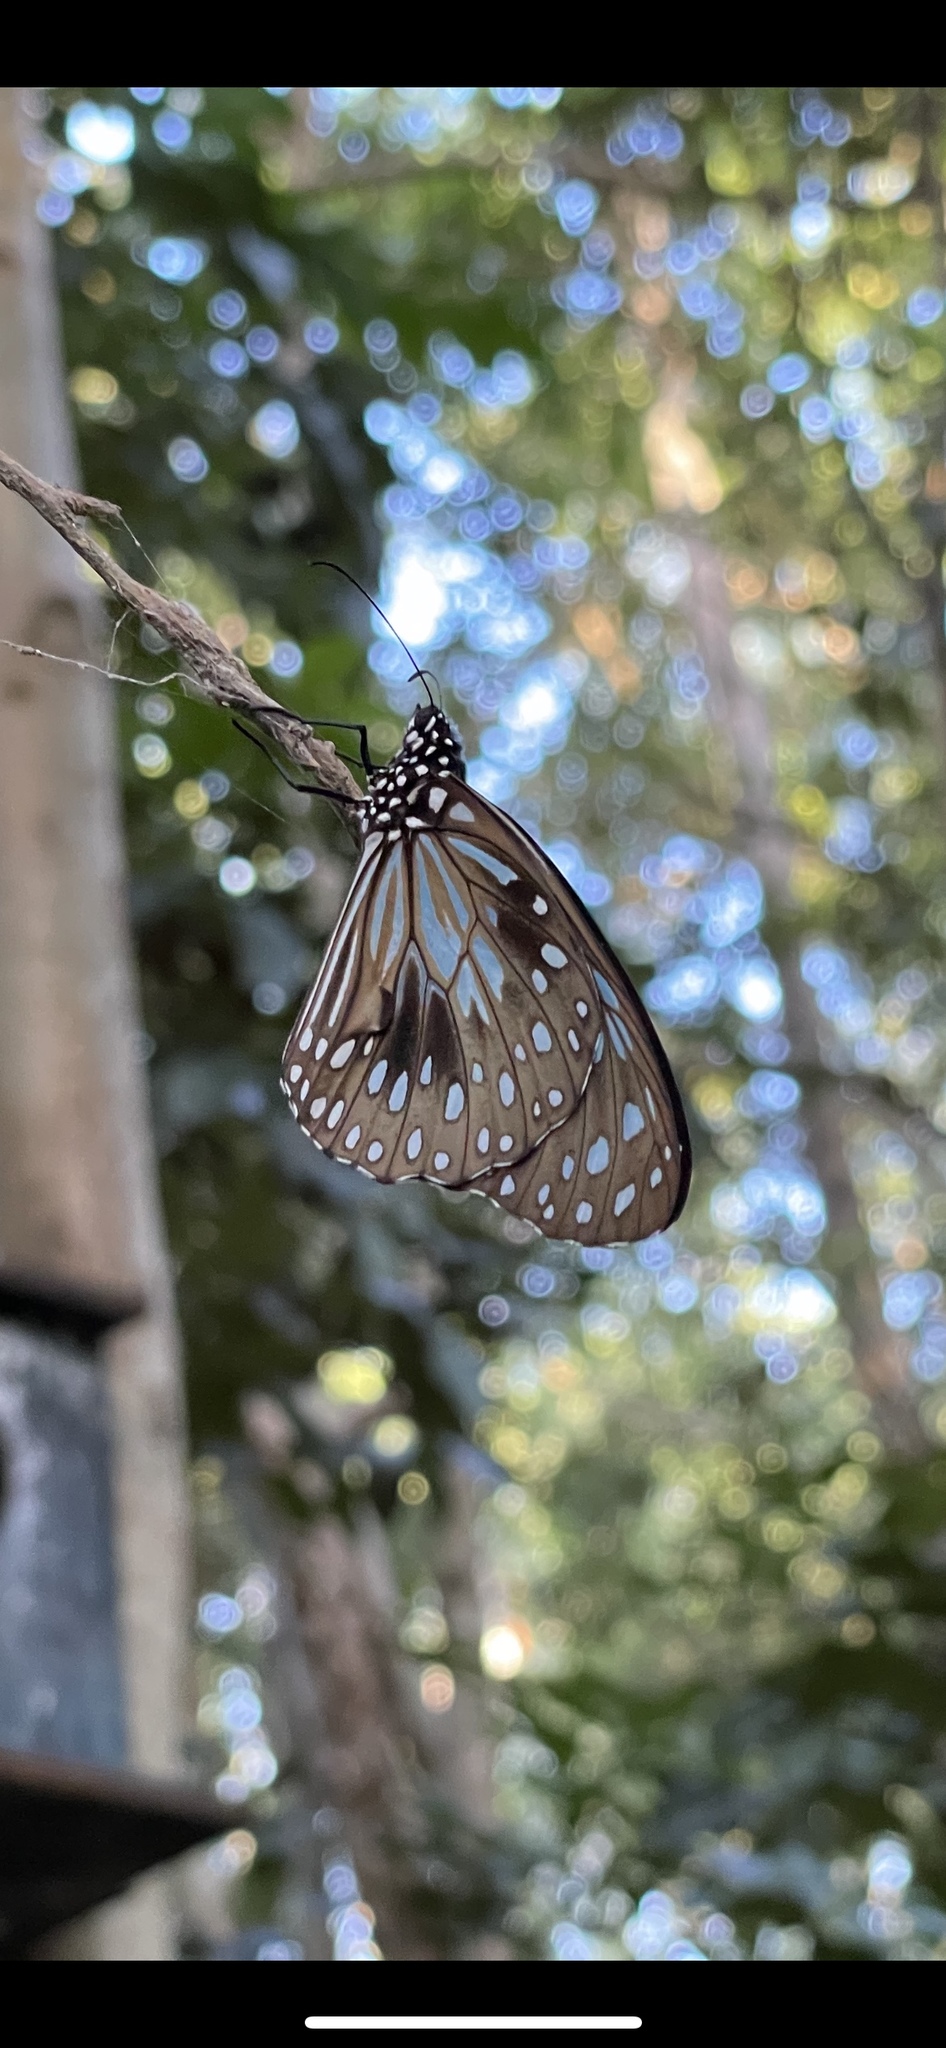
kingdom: Animalia
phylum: Arthropoda
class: Insecta
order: Lepidoptera
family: Nymphalidae
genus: Tirumala
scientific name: Tirumala hamata
